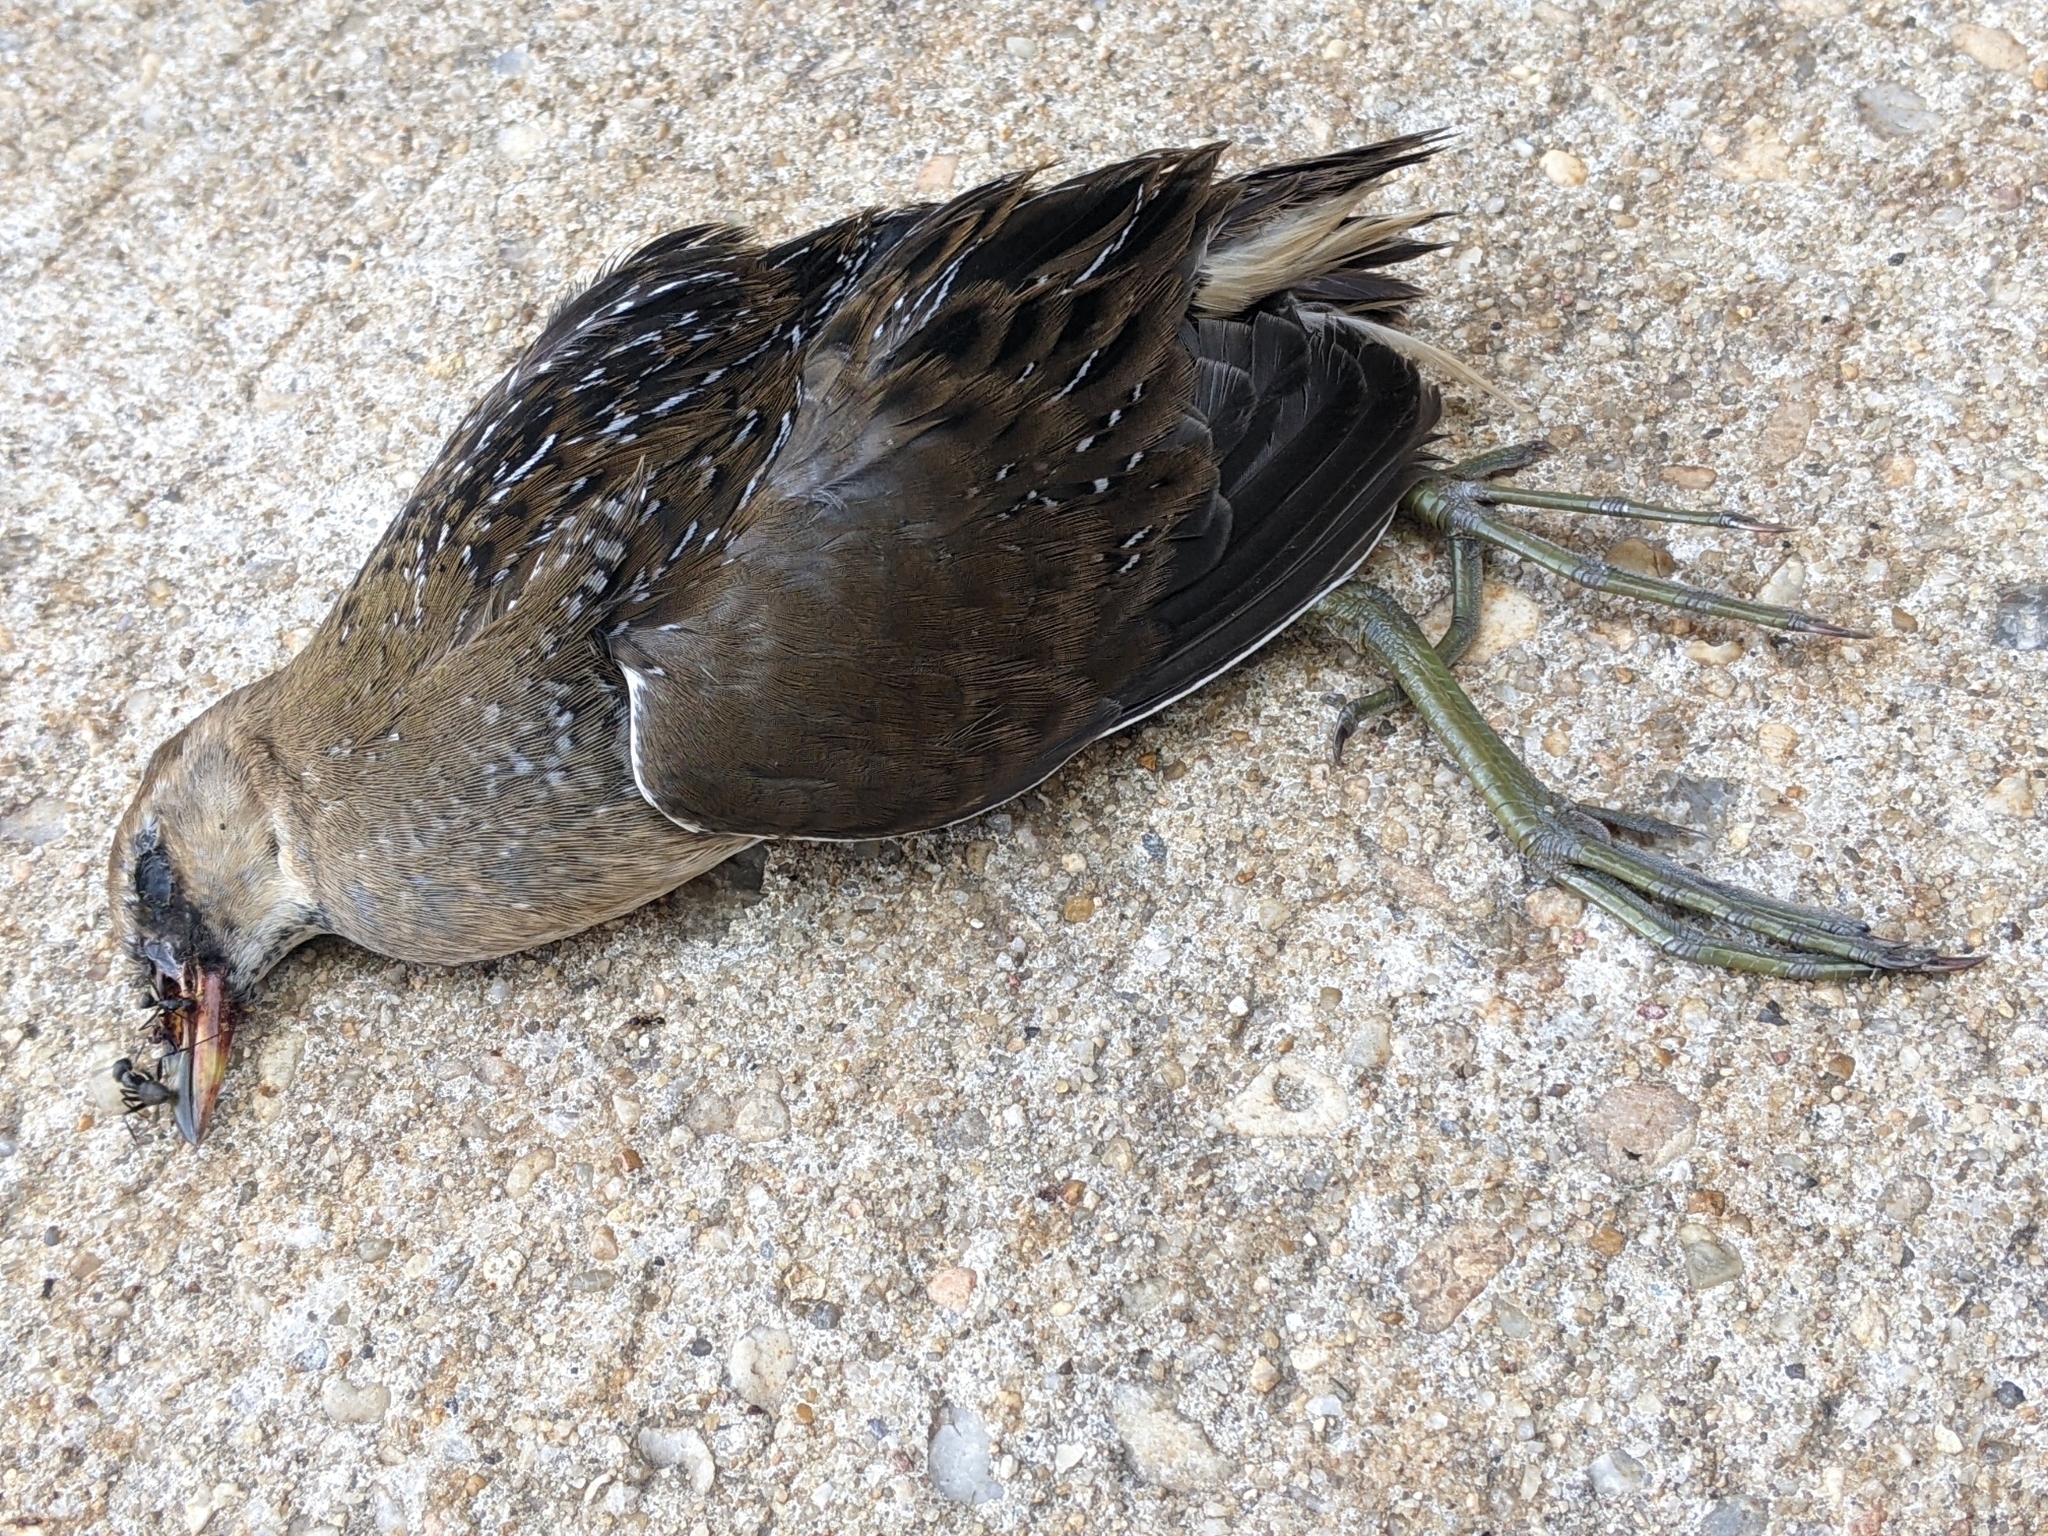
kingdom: Animalia
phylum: Chordata
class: Aves
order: Gruiformes
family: Rallidae
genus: Porzana
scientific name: Porzana carolina
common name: Sora
